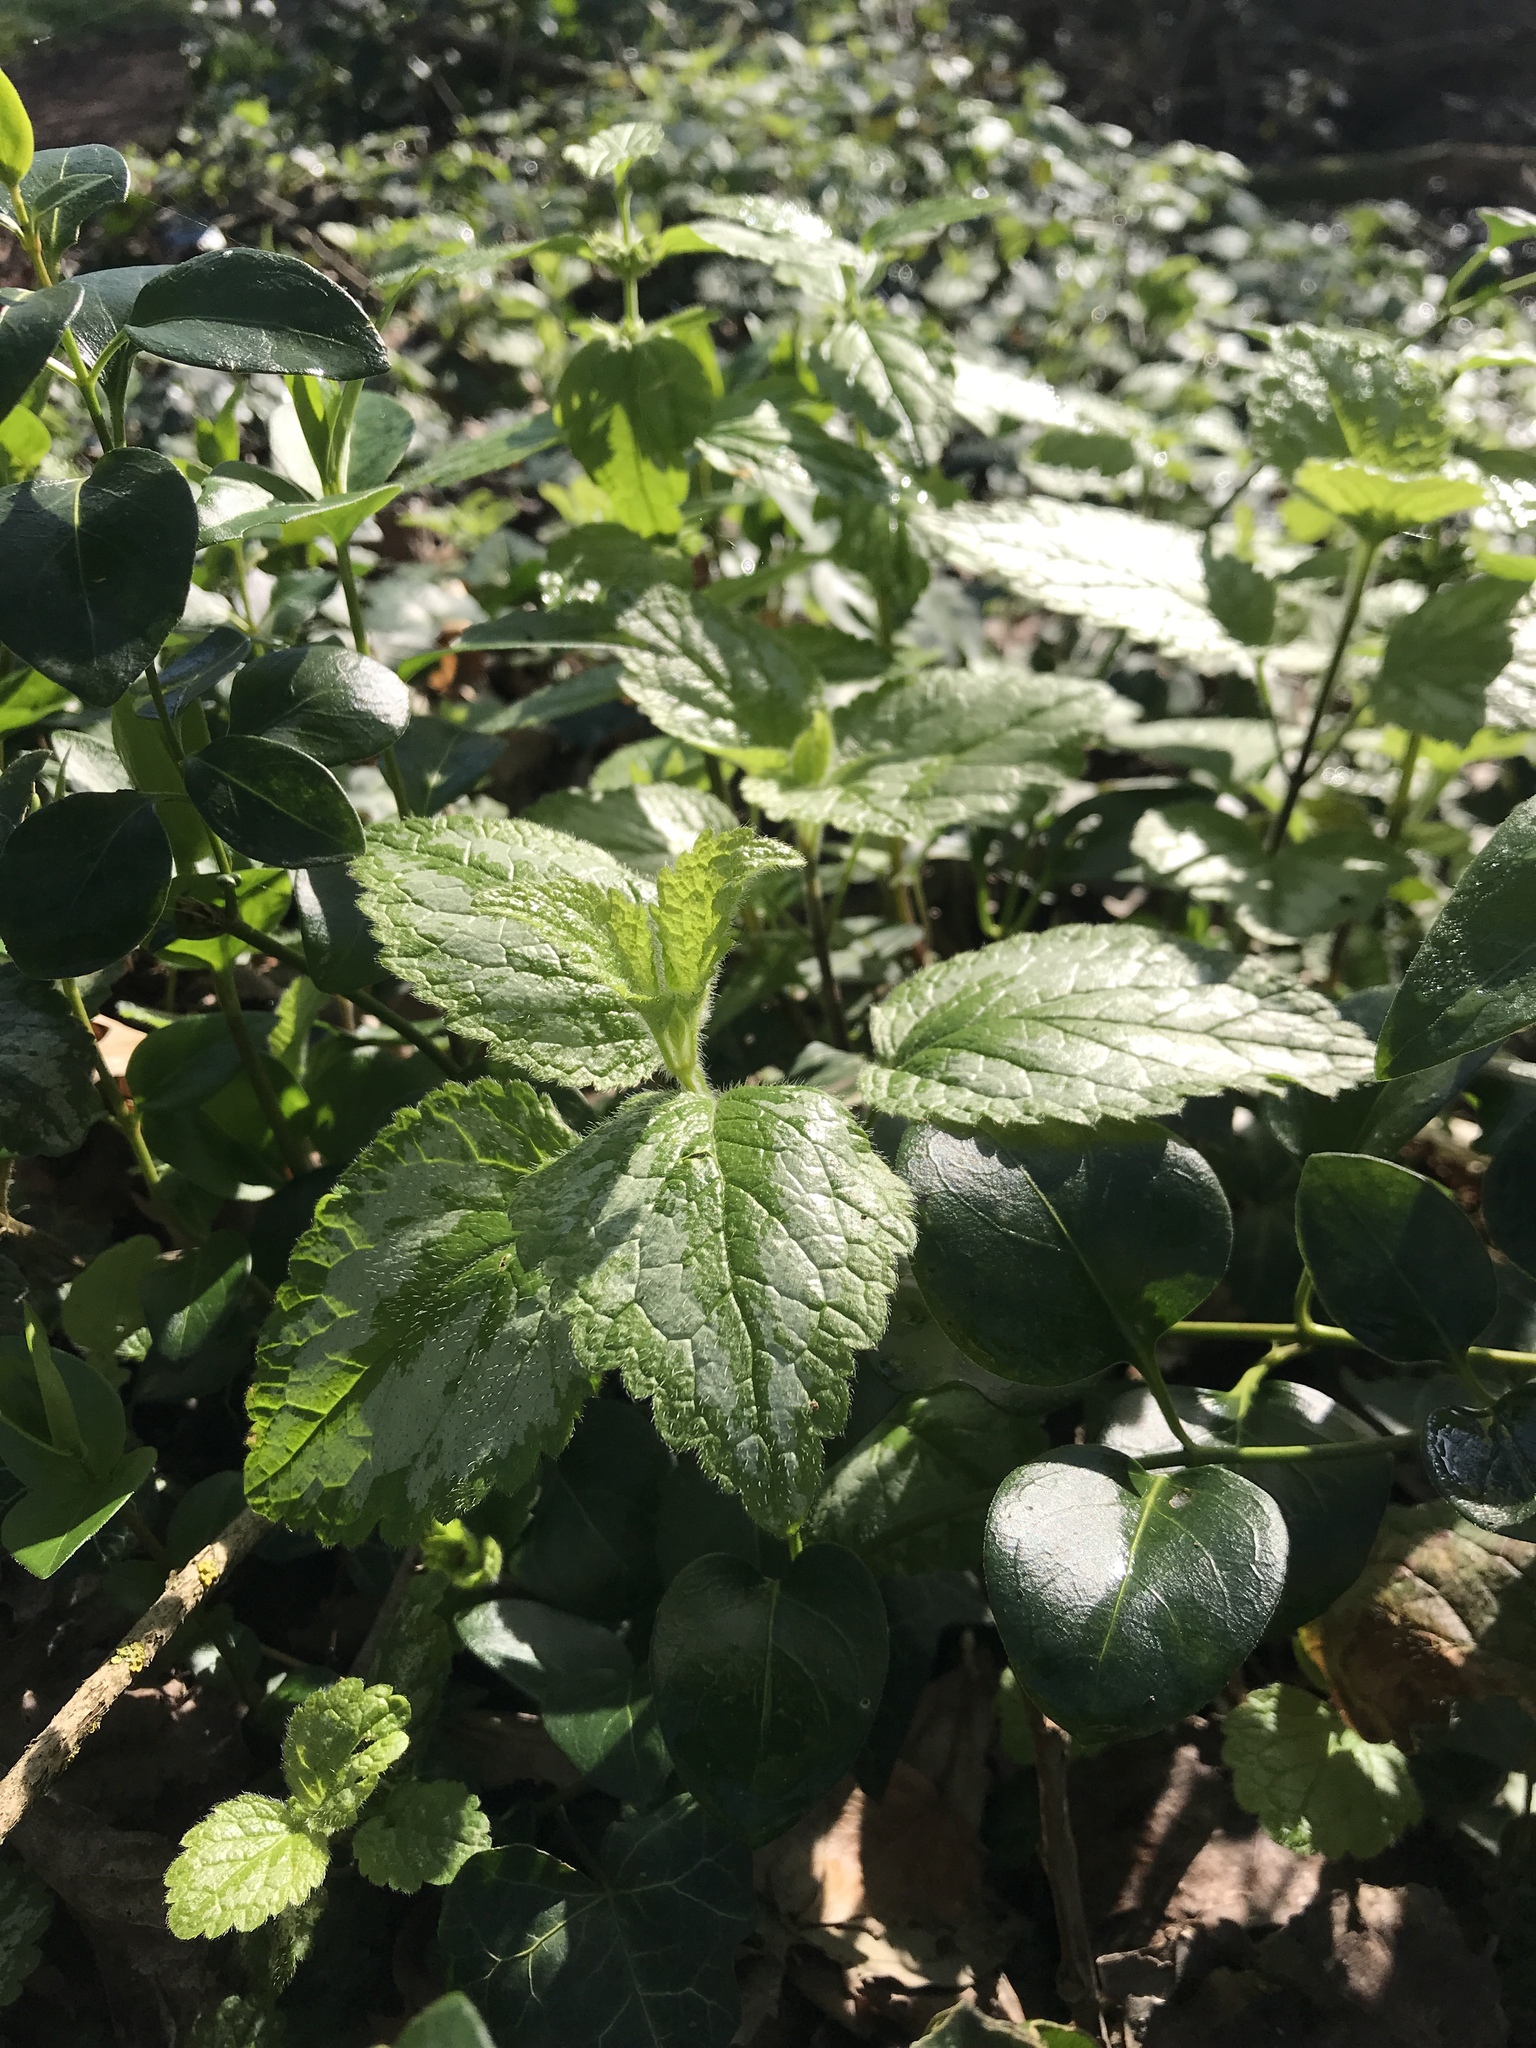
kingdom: Plantae
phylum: Tracheophyta
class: Magnoliopsida
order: Lamiales
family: Lamiaceae
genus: Lamium
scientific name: Lamium galeobdolon
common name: Yellow archangel
